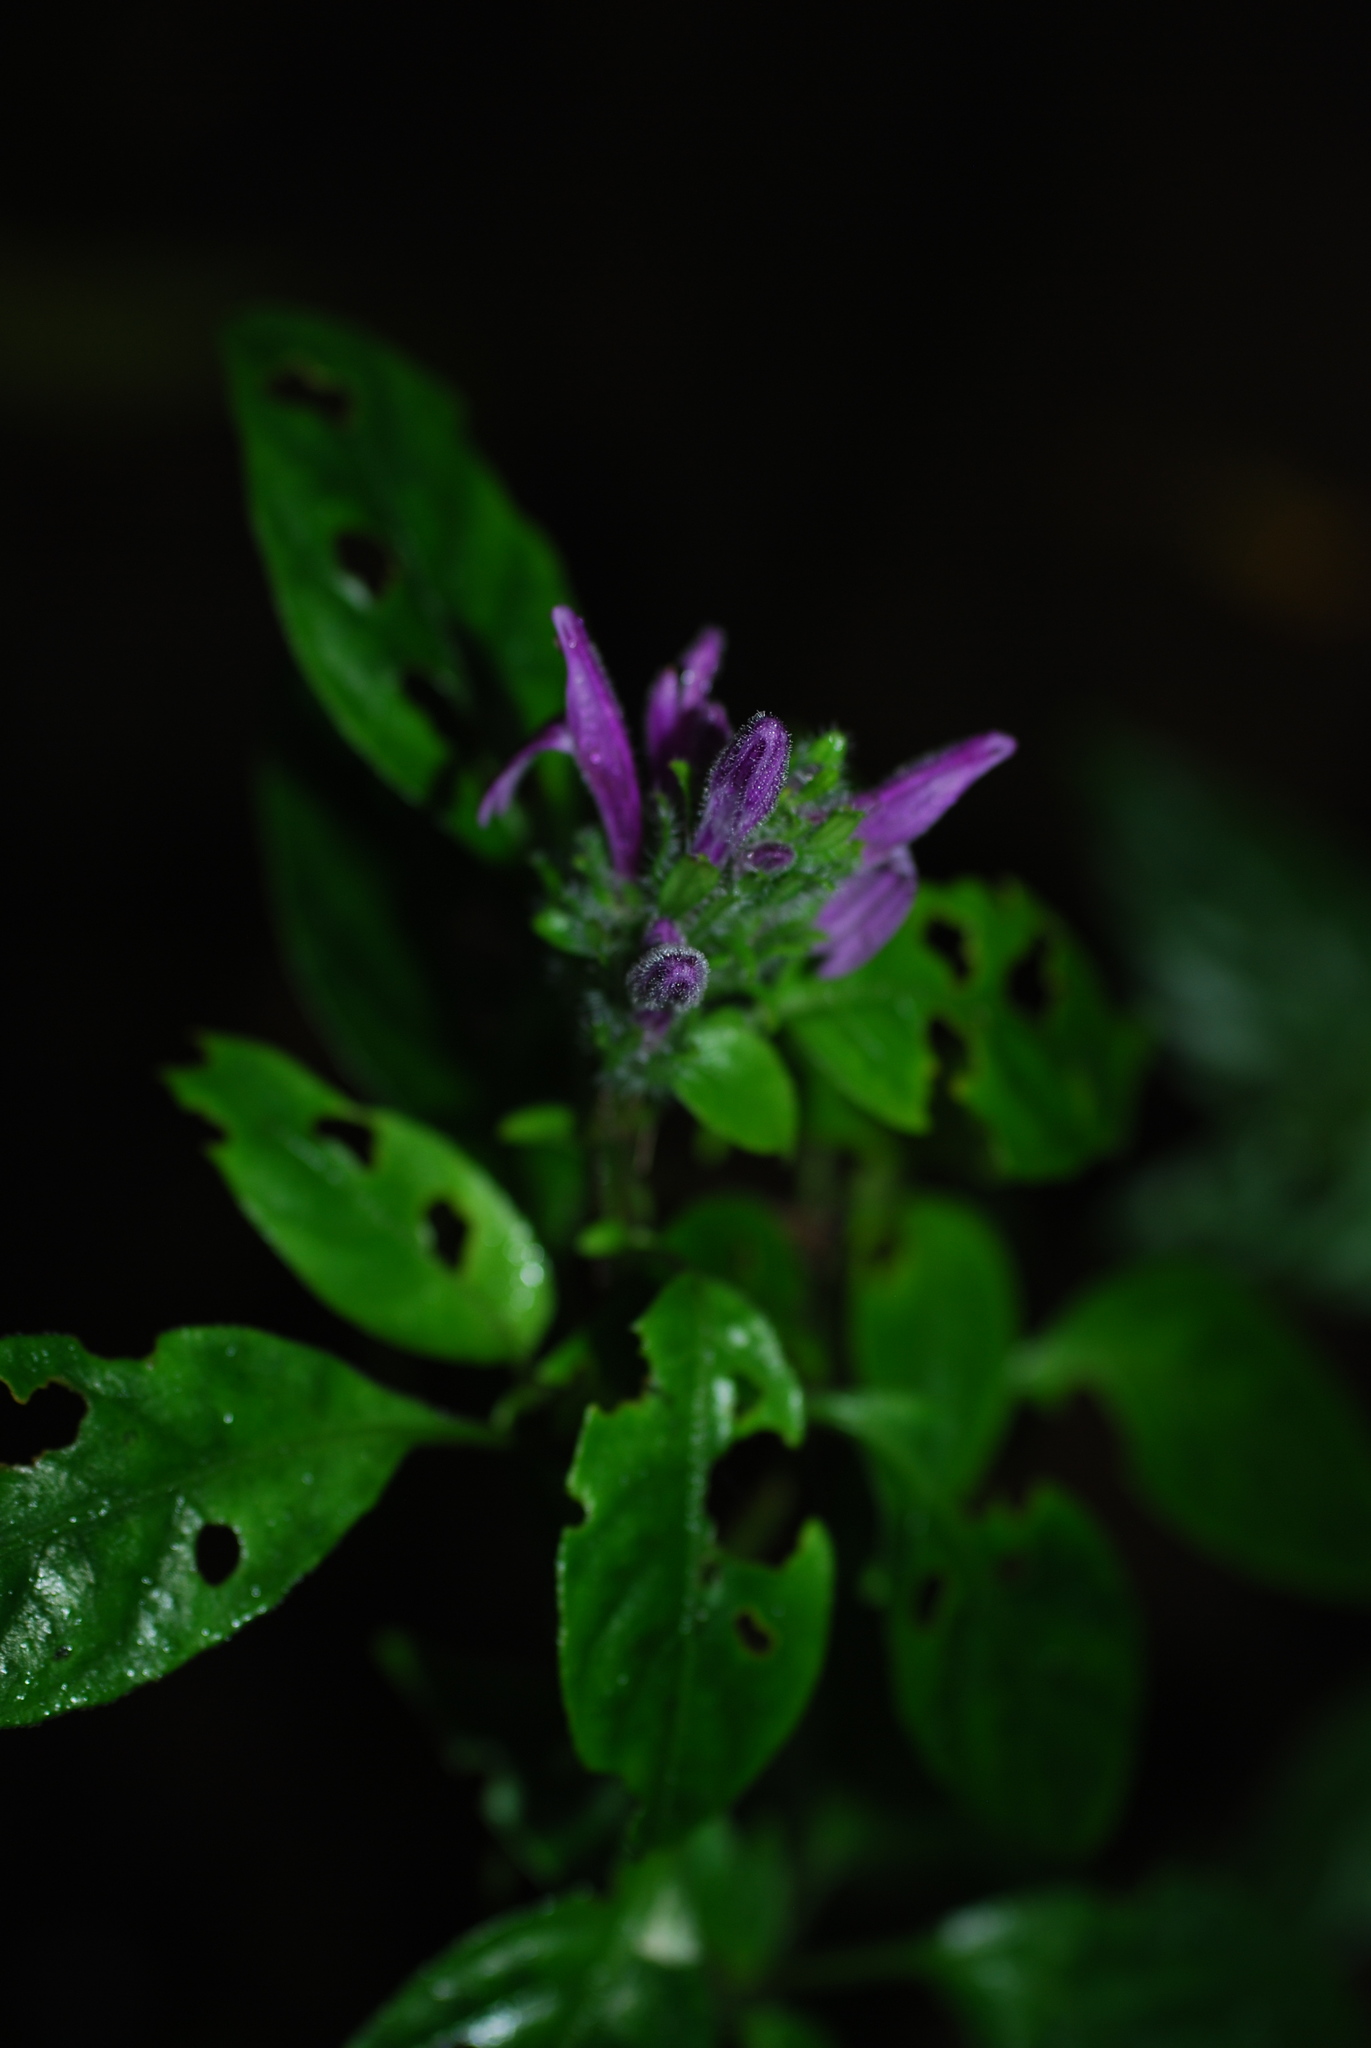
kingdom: Plantae
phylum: Tracheophyta
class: Magnoliopsida
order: Lamiales
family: Acanthaceae
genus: Justicia
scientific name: Justicia brenesii
